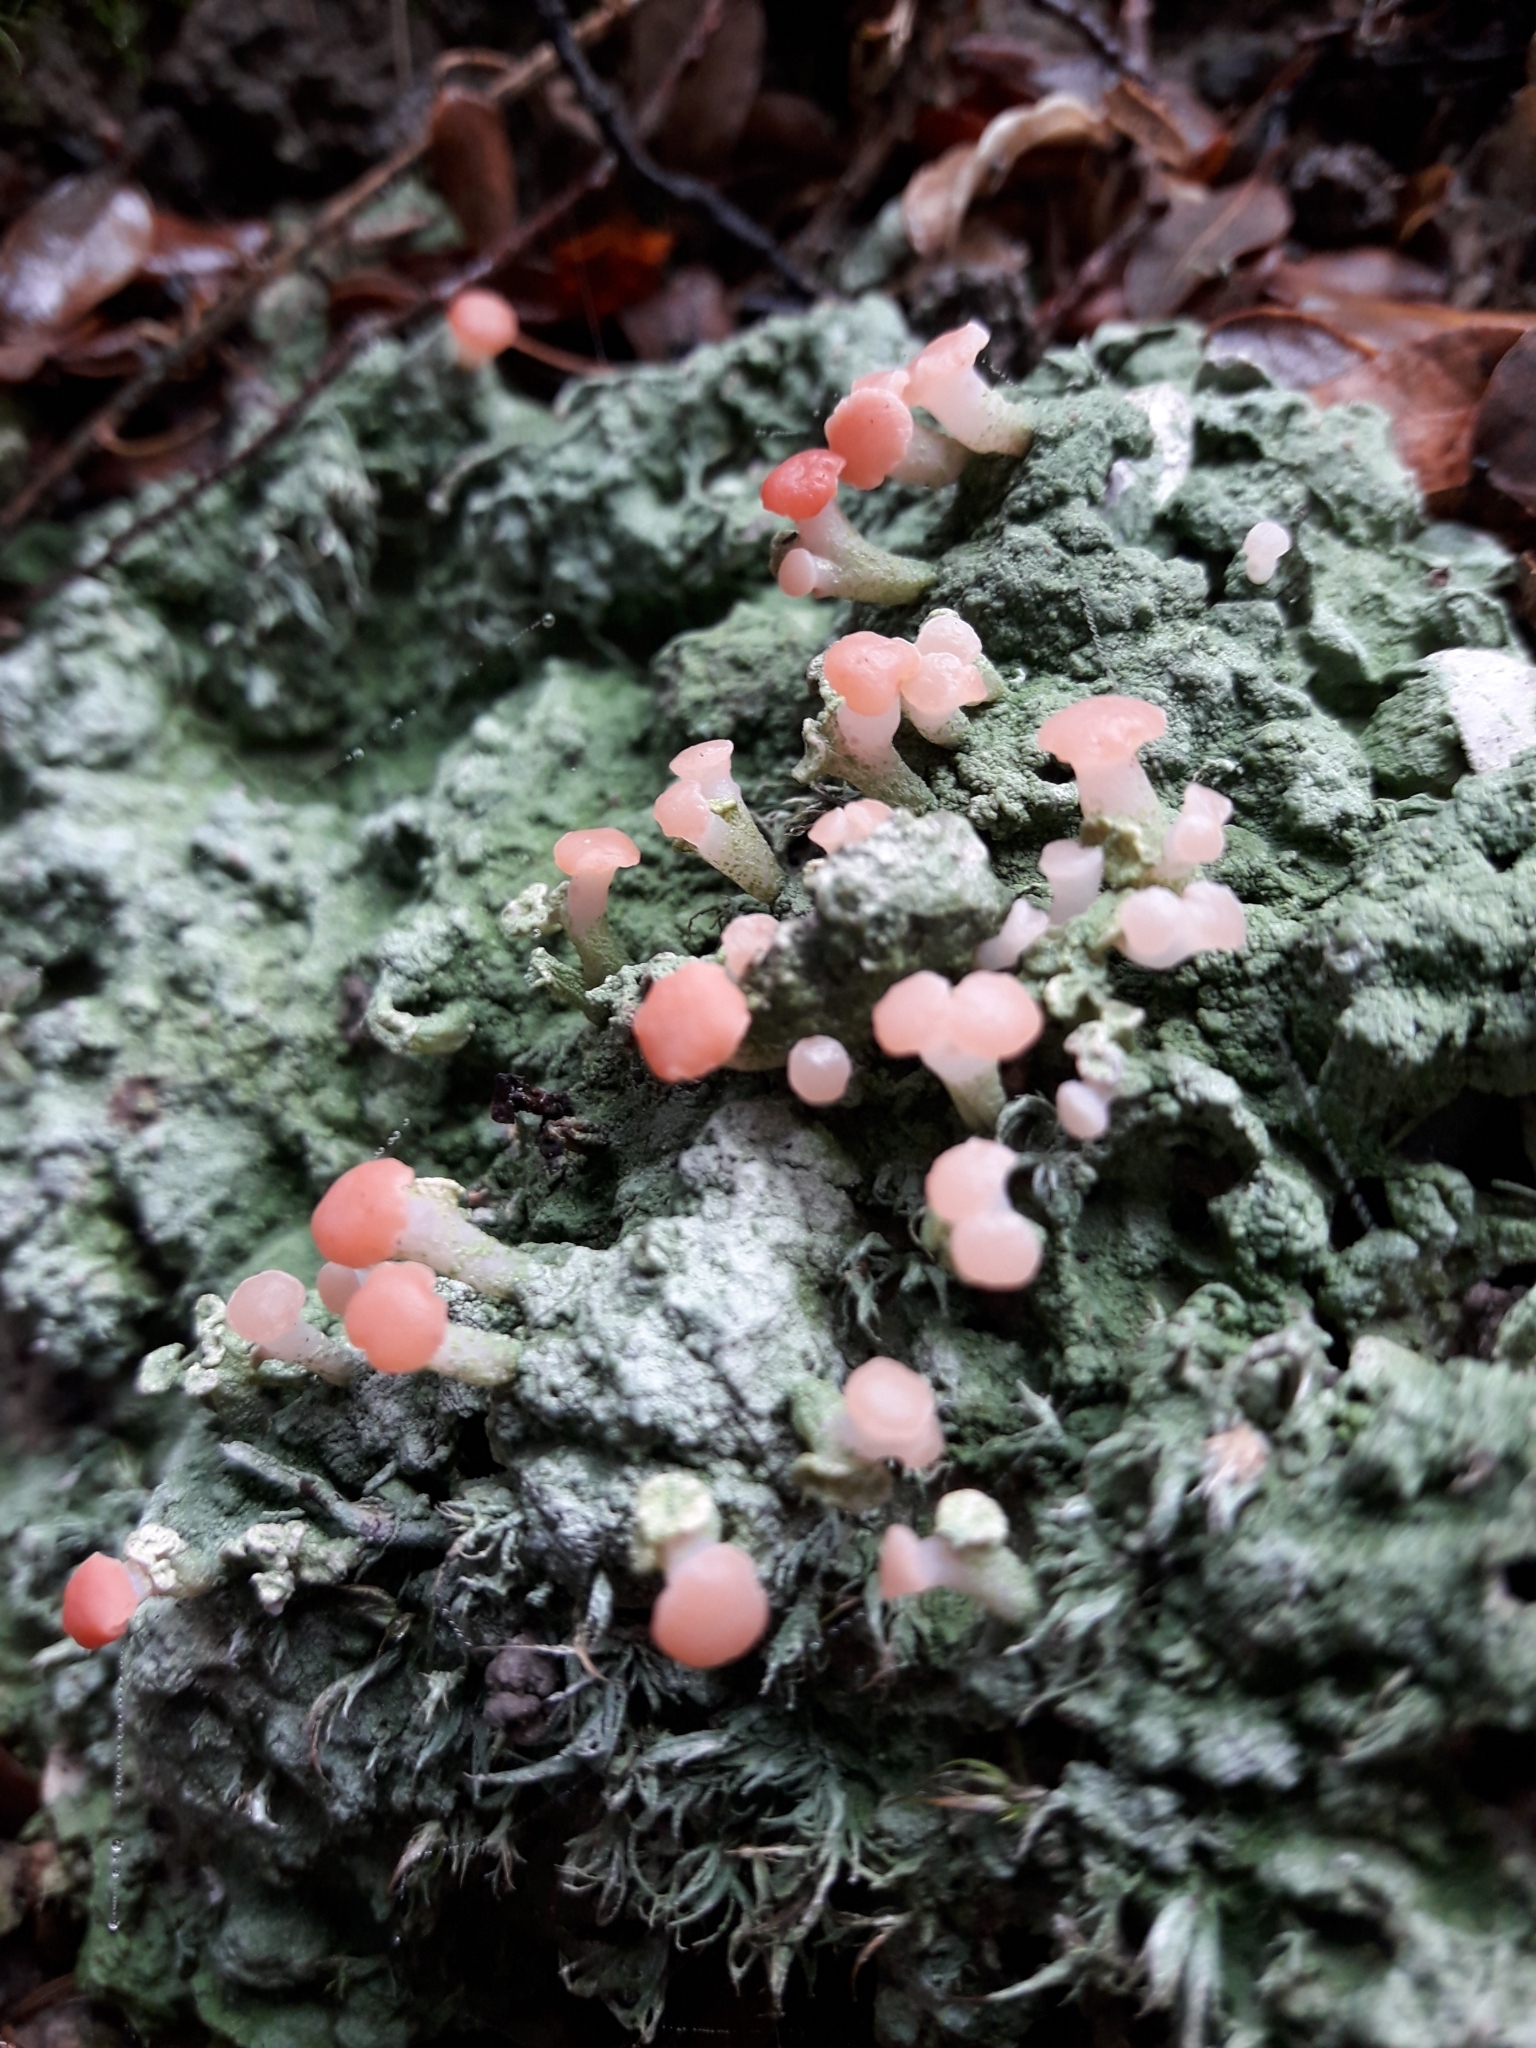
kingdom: Fungi
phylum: Ascomycota
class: Lecanoromycetes
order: Baeomycetales
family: Baeomycetaceae
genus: Baeomyces
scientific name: Baeomyces heteromorphus
